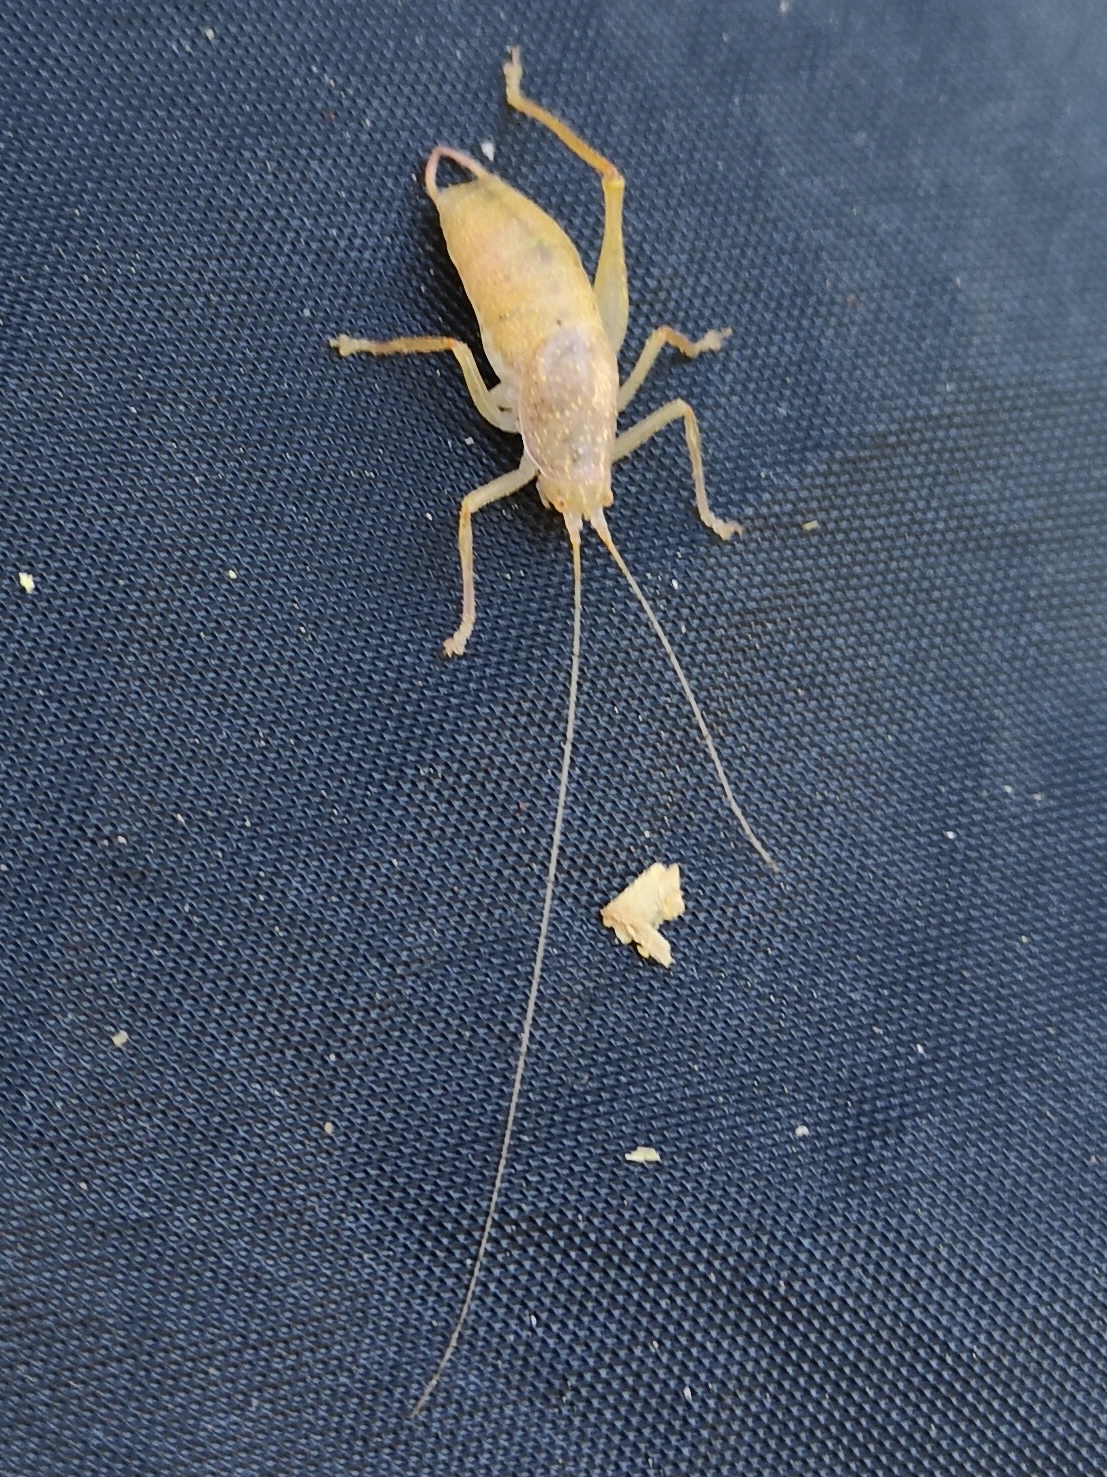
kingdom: Animalia
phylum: Arthropoda
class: Insecta
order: Orthoptera
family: Tettigoniidae
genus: Cyrtaspis
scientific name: Cyrtaspis scutata
